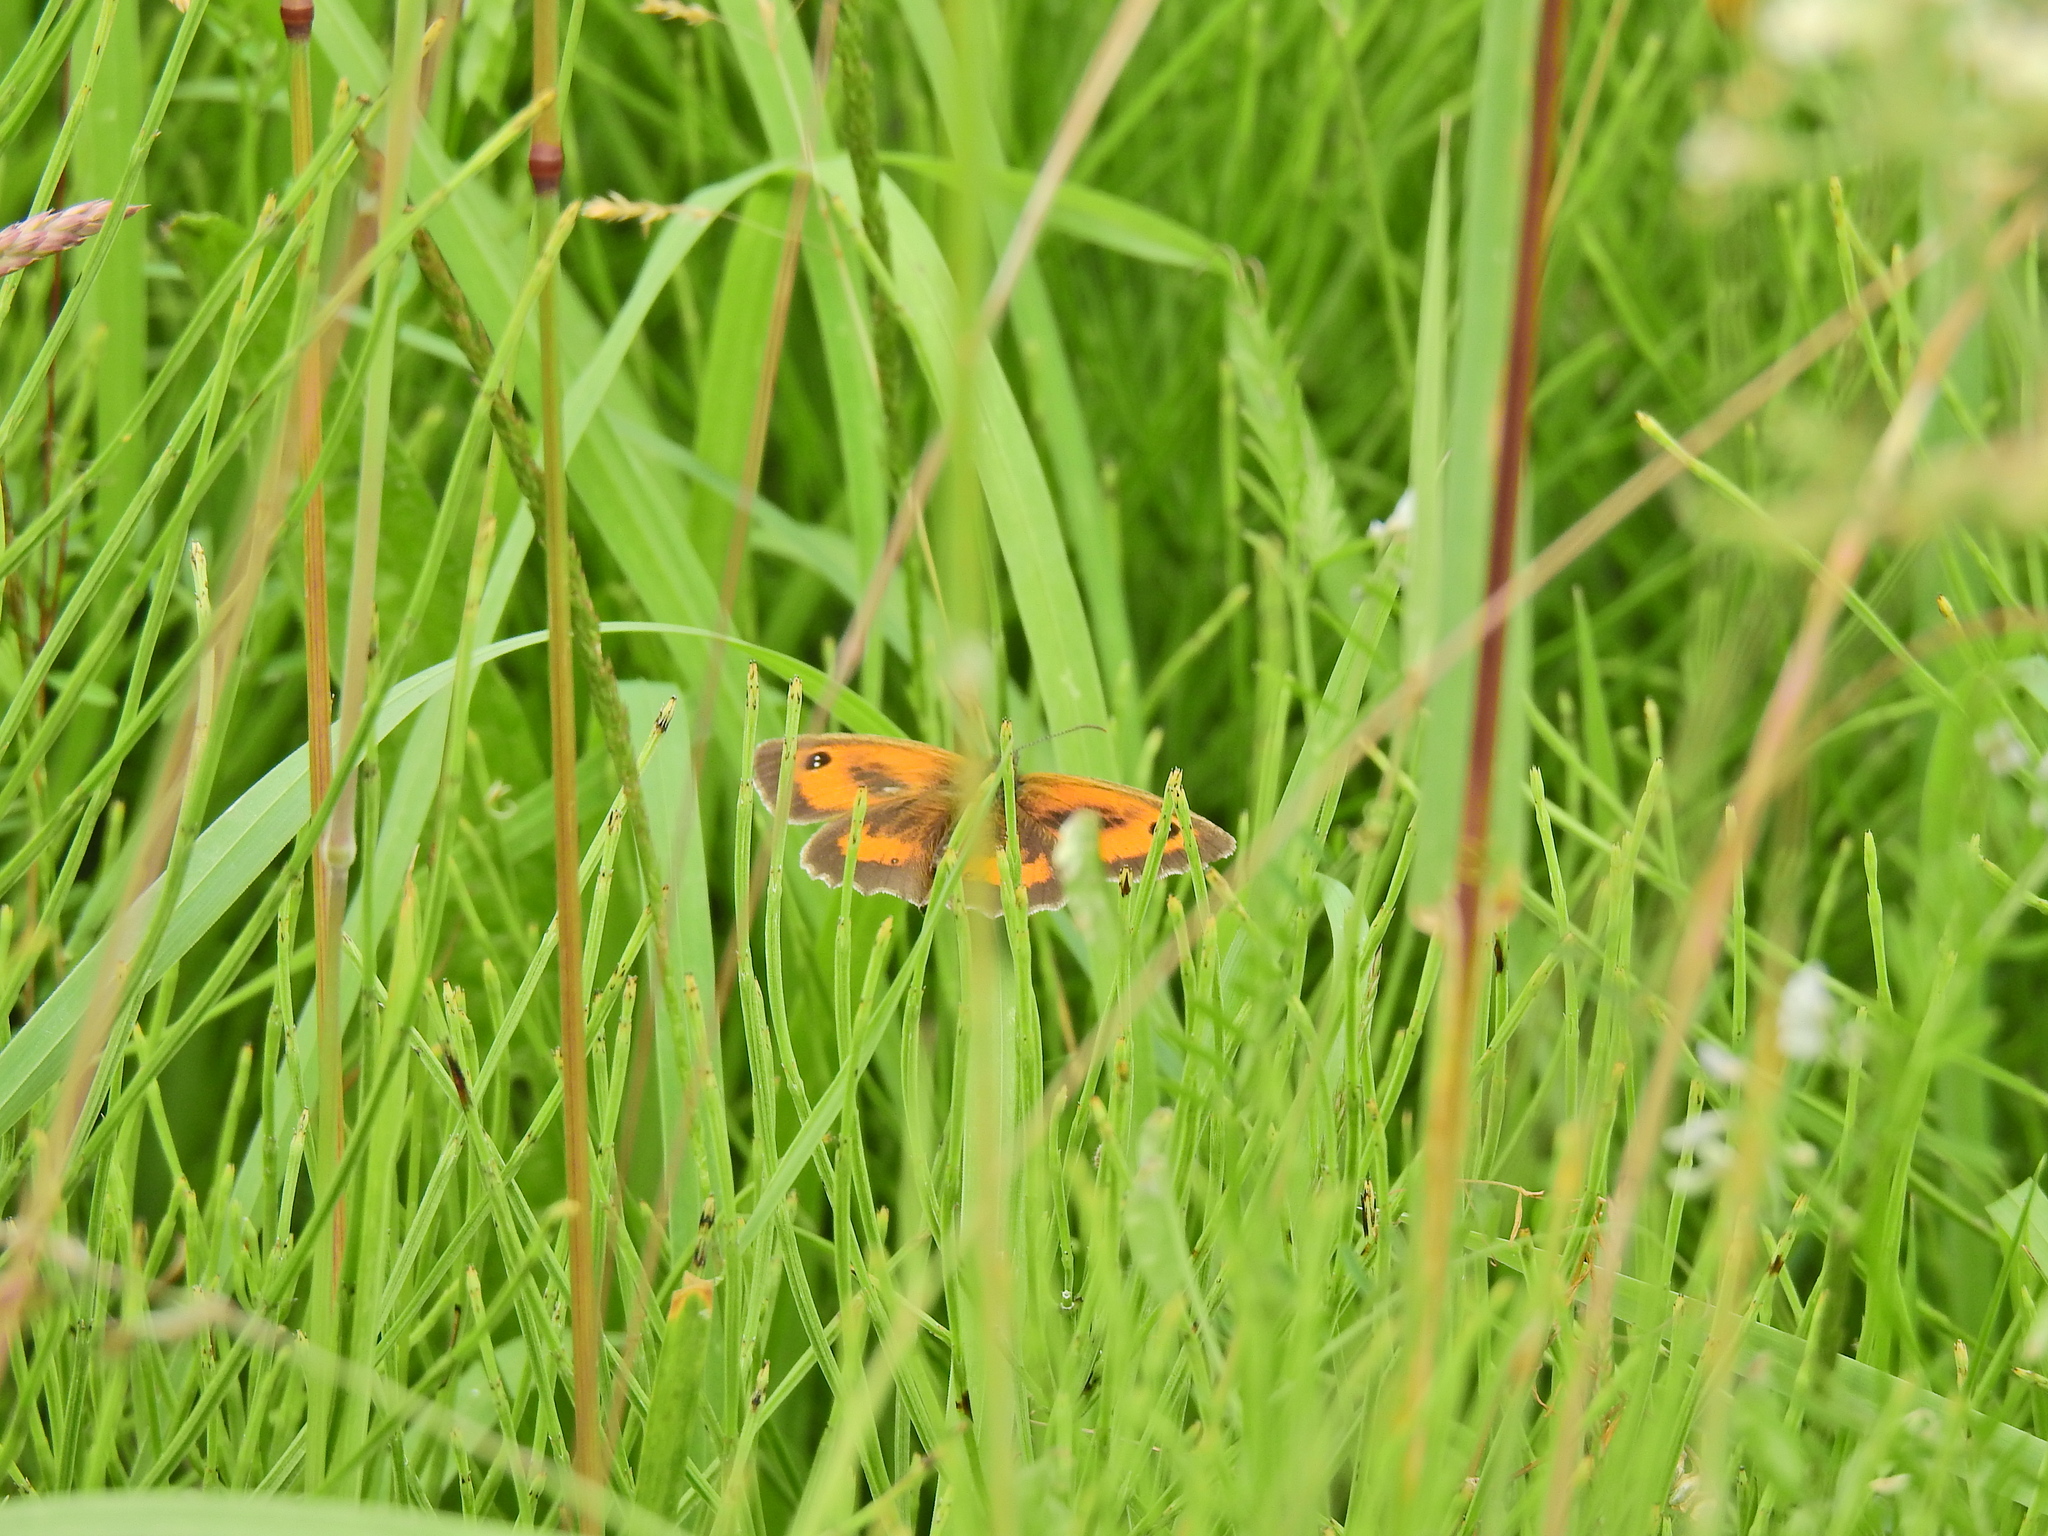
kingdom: Animalia
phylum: Arthropoda
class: Insecta
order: Lepidoptera
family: Nymphalidae
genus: Pyronia
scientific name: Pyronia tithonus
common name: Gatekeeper
